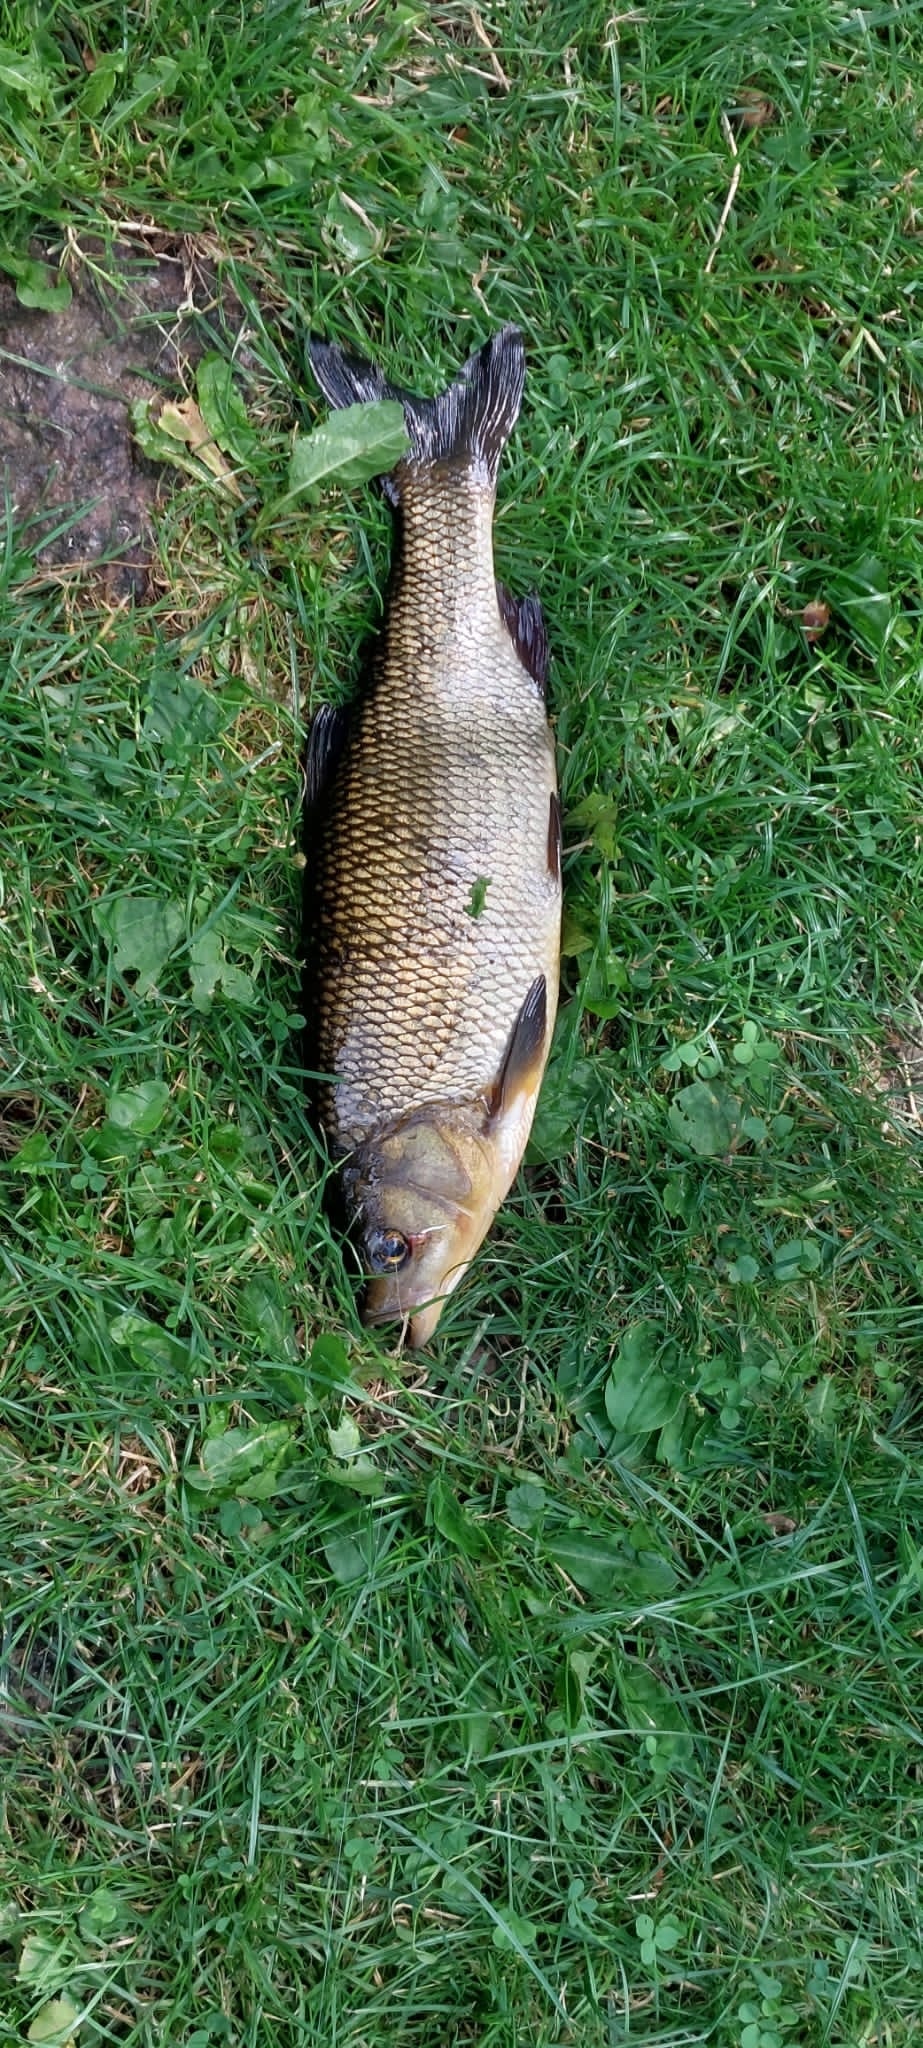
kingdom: Animalia
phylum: Chordata
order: Cypriniformes
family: Cyprinidae
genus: Leuciscus
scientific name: Leuciscus idus
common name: Ide
